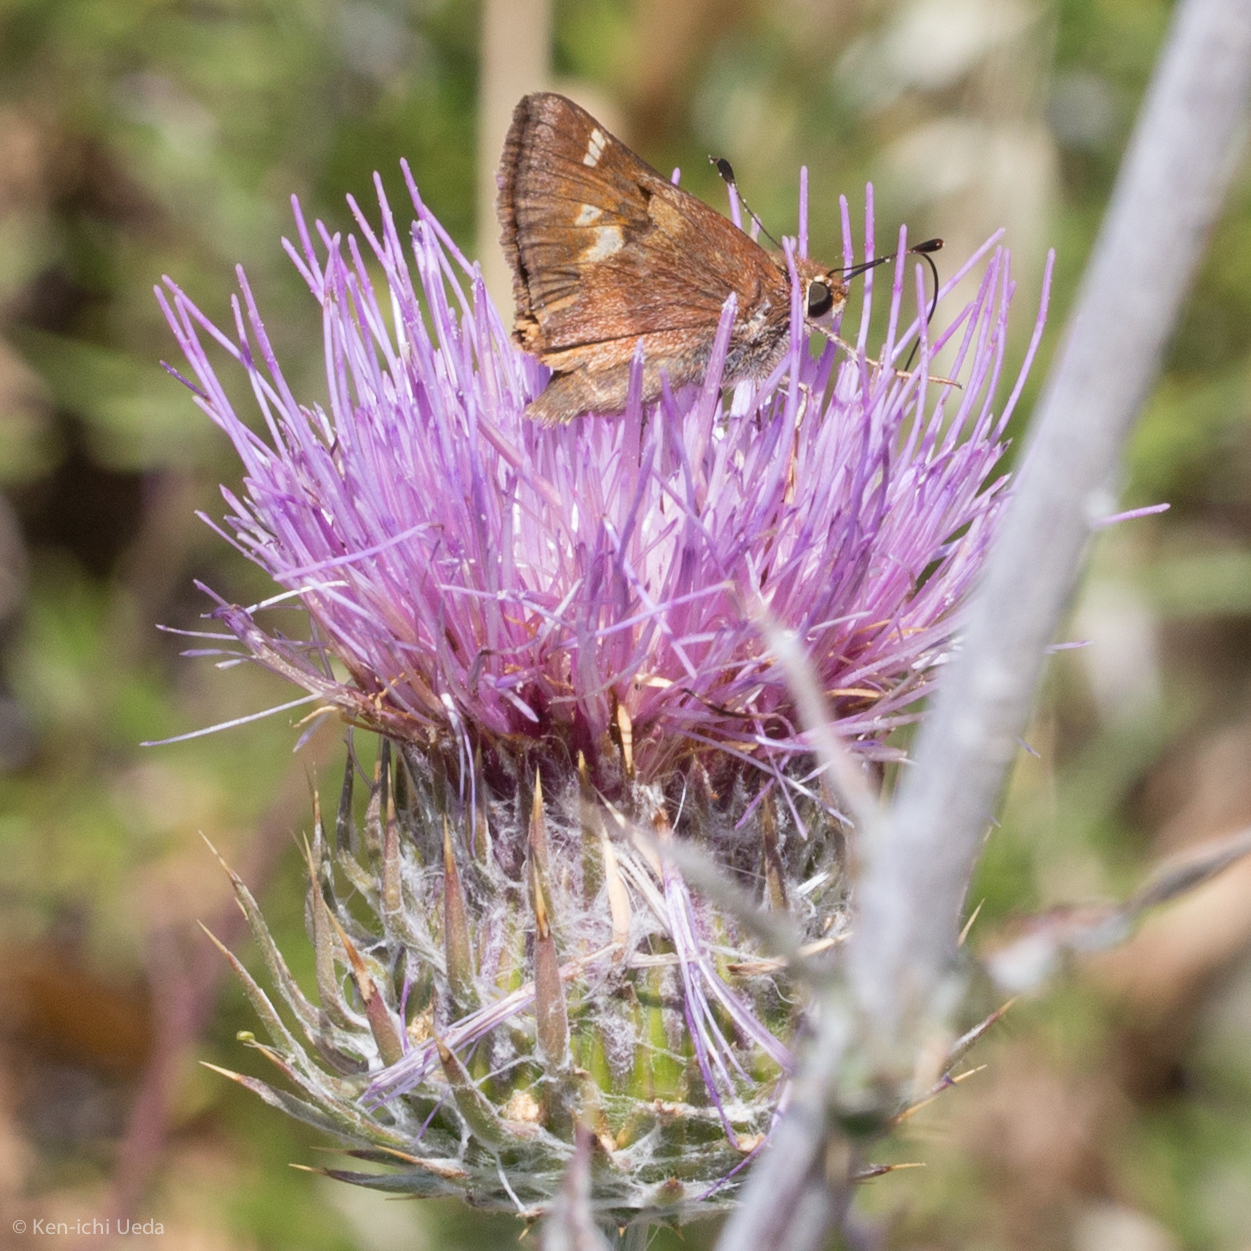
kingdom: Animalia
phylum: Arthropoda
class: Insecta
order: Lepidoptera
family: Hesperiidae
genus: Lon
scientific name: Lon melane
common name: Umber skipper
